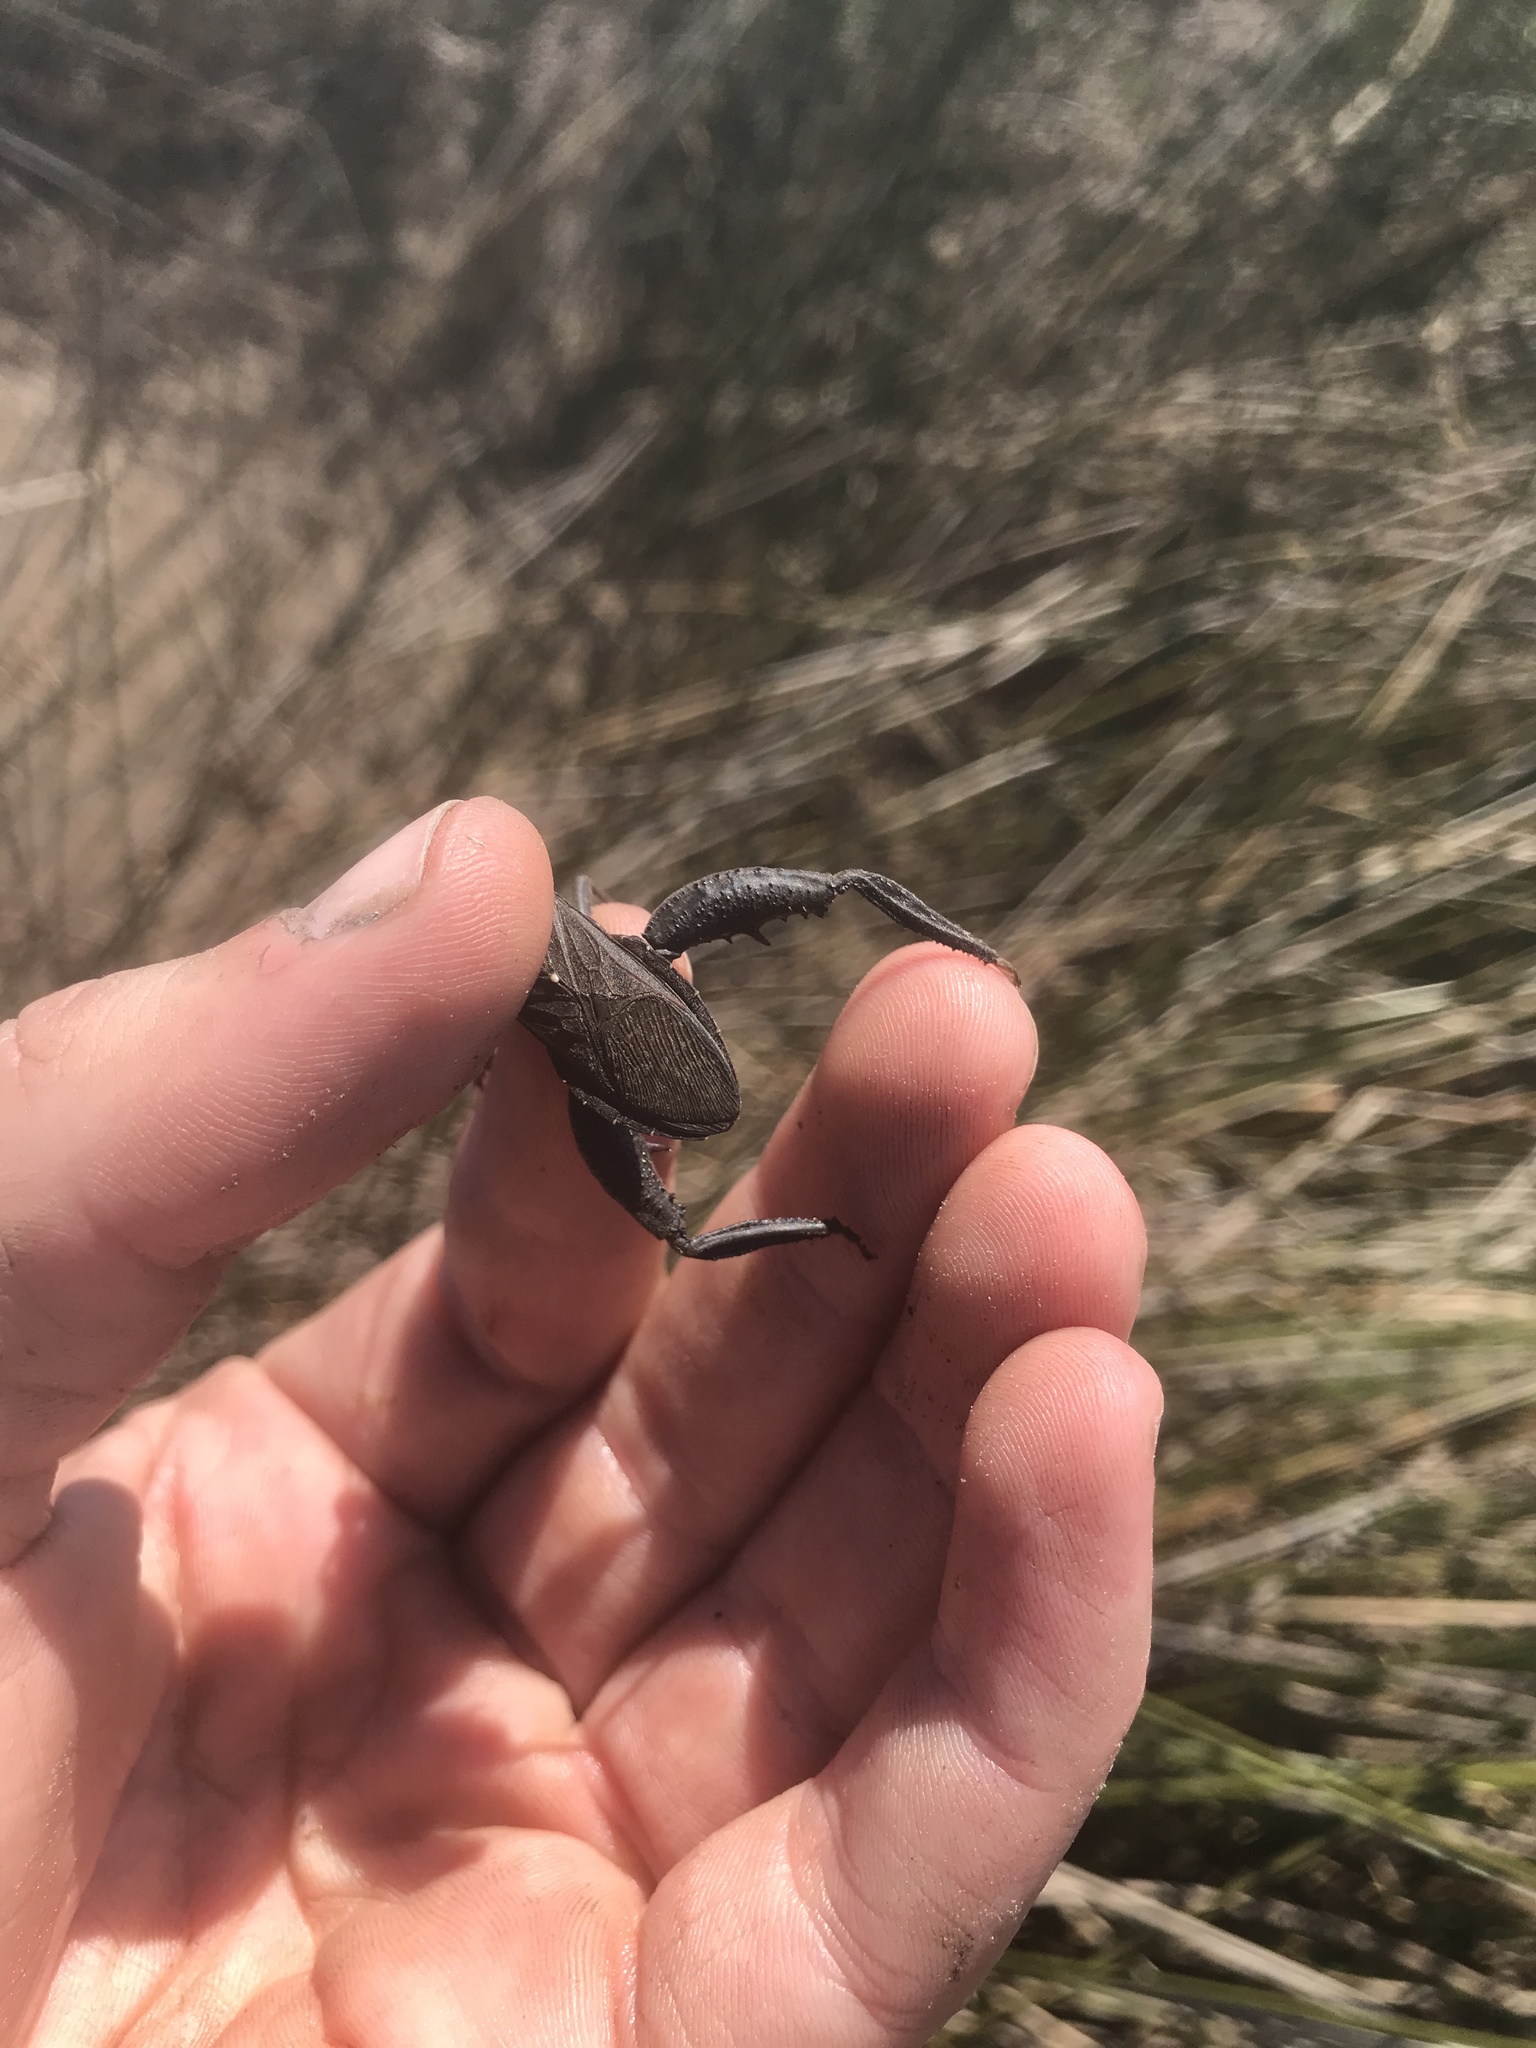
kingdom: Animalia
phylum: Arthropoda
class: Insecta
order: Hemiptera
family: Coreidae
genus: Acanthocephala
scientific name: Acanthocephala femorata
